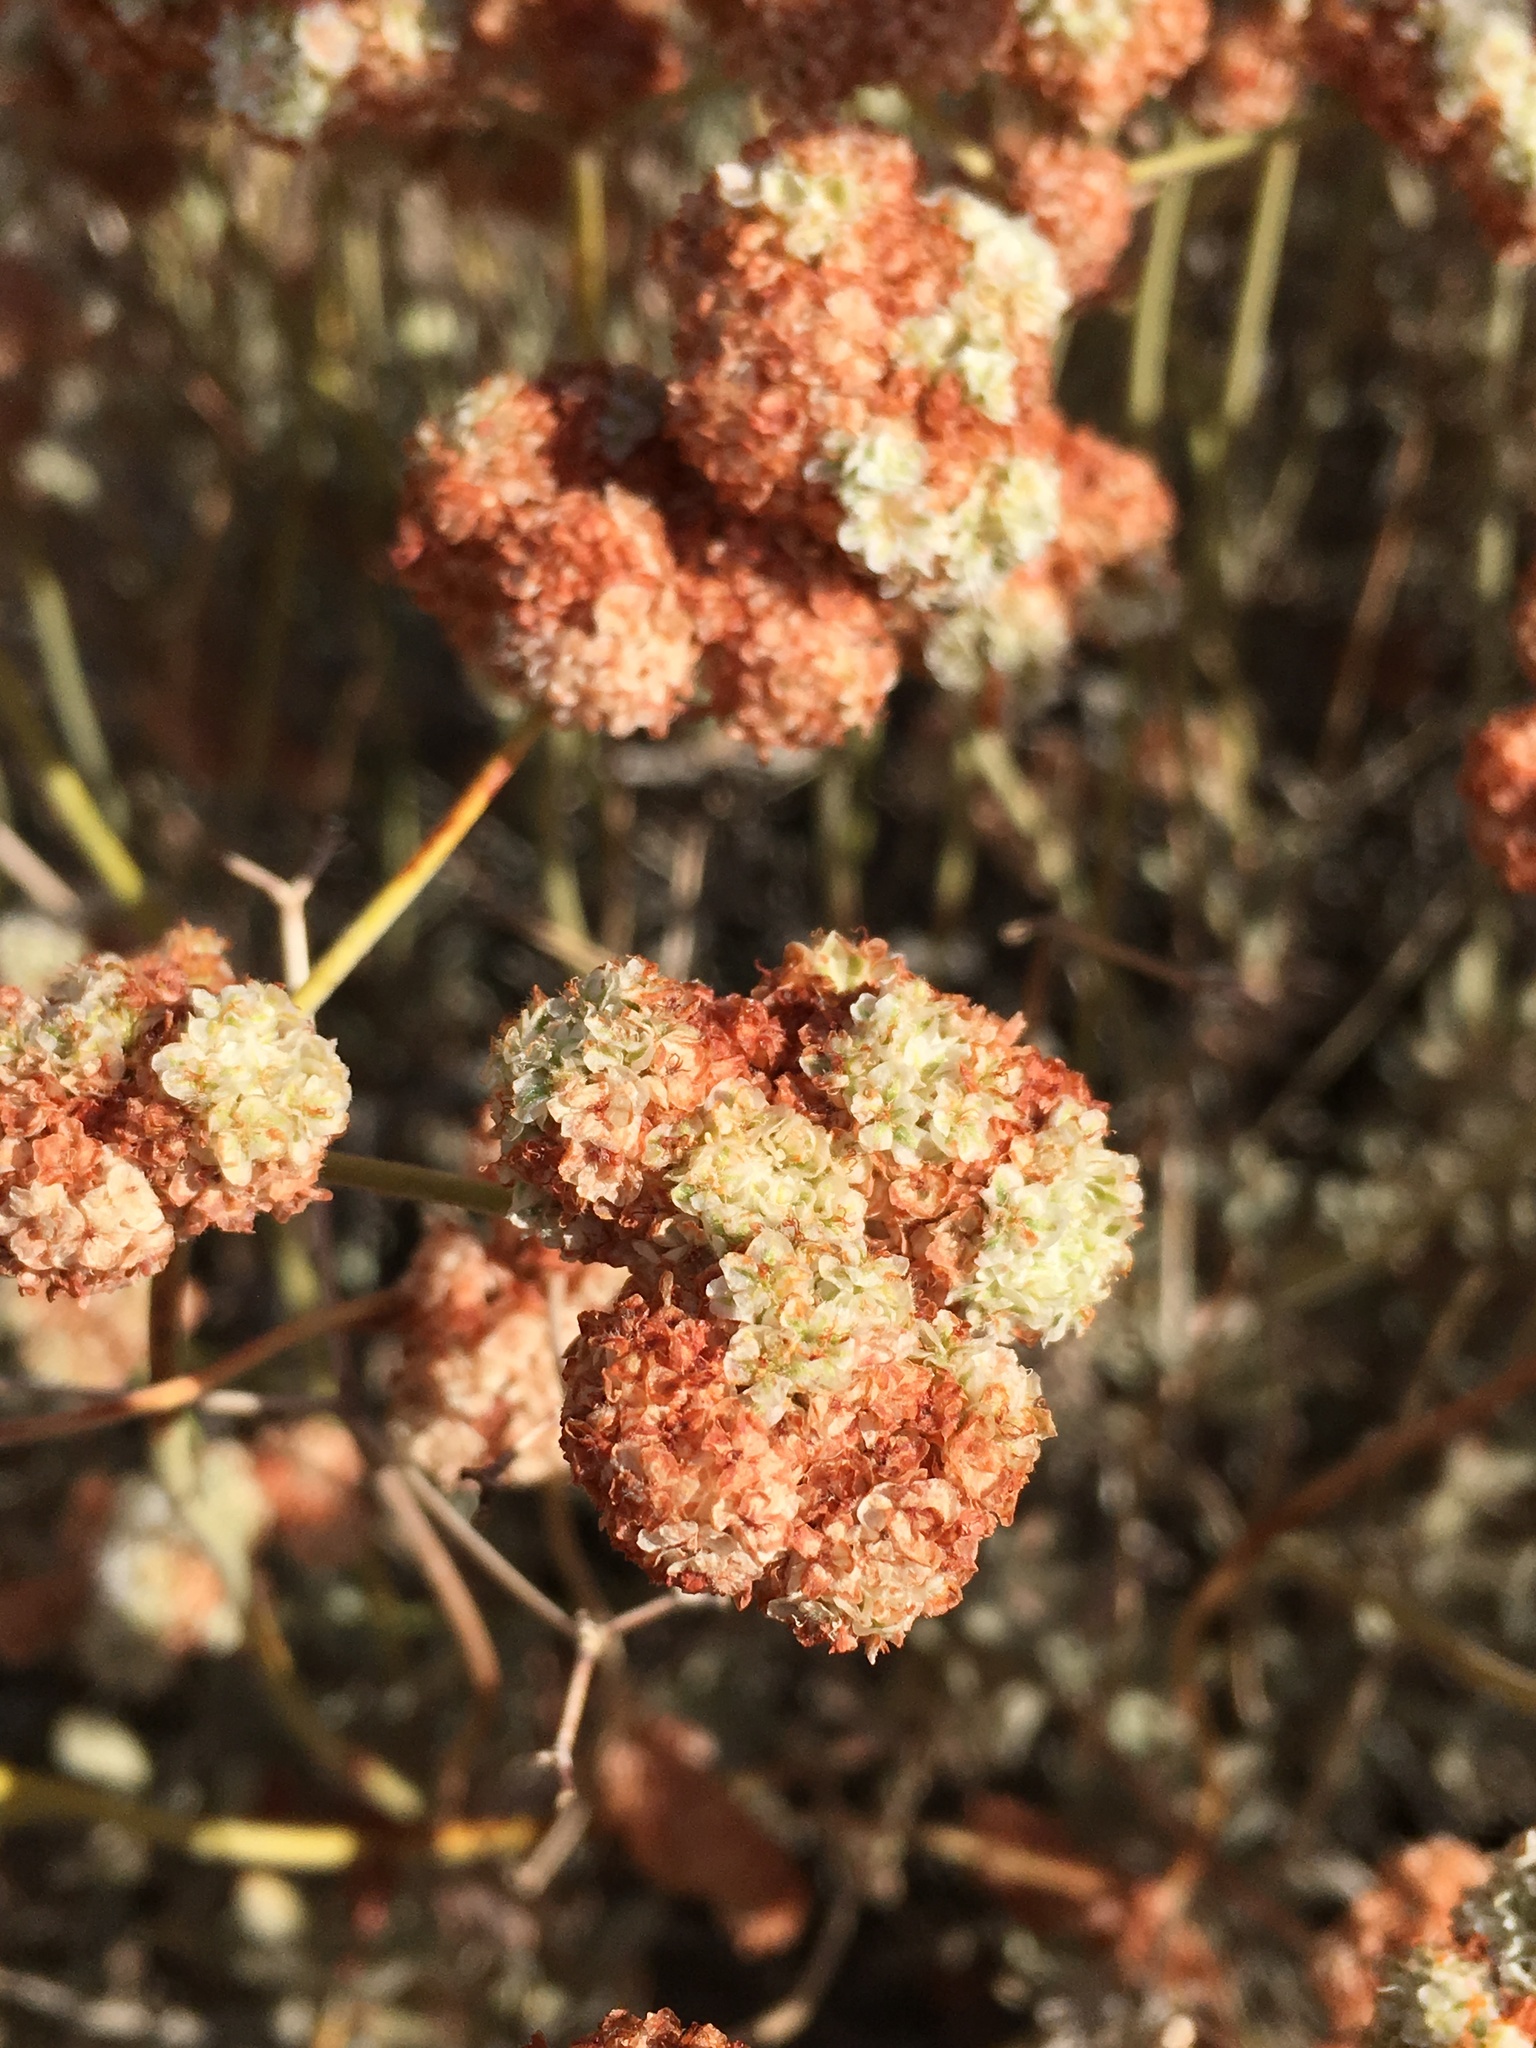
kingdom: Plantae
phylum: Tracheophyta
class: Magnoliopsida
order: Caryophyllales
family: Polygonaceae
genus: Eriogonum
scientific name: Eriogonum fasciculatum
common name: California wild buckwheat
